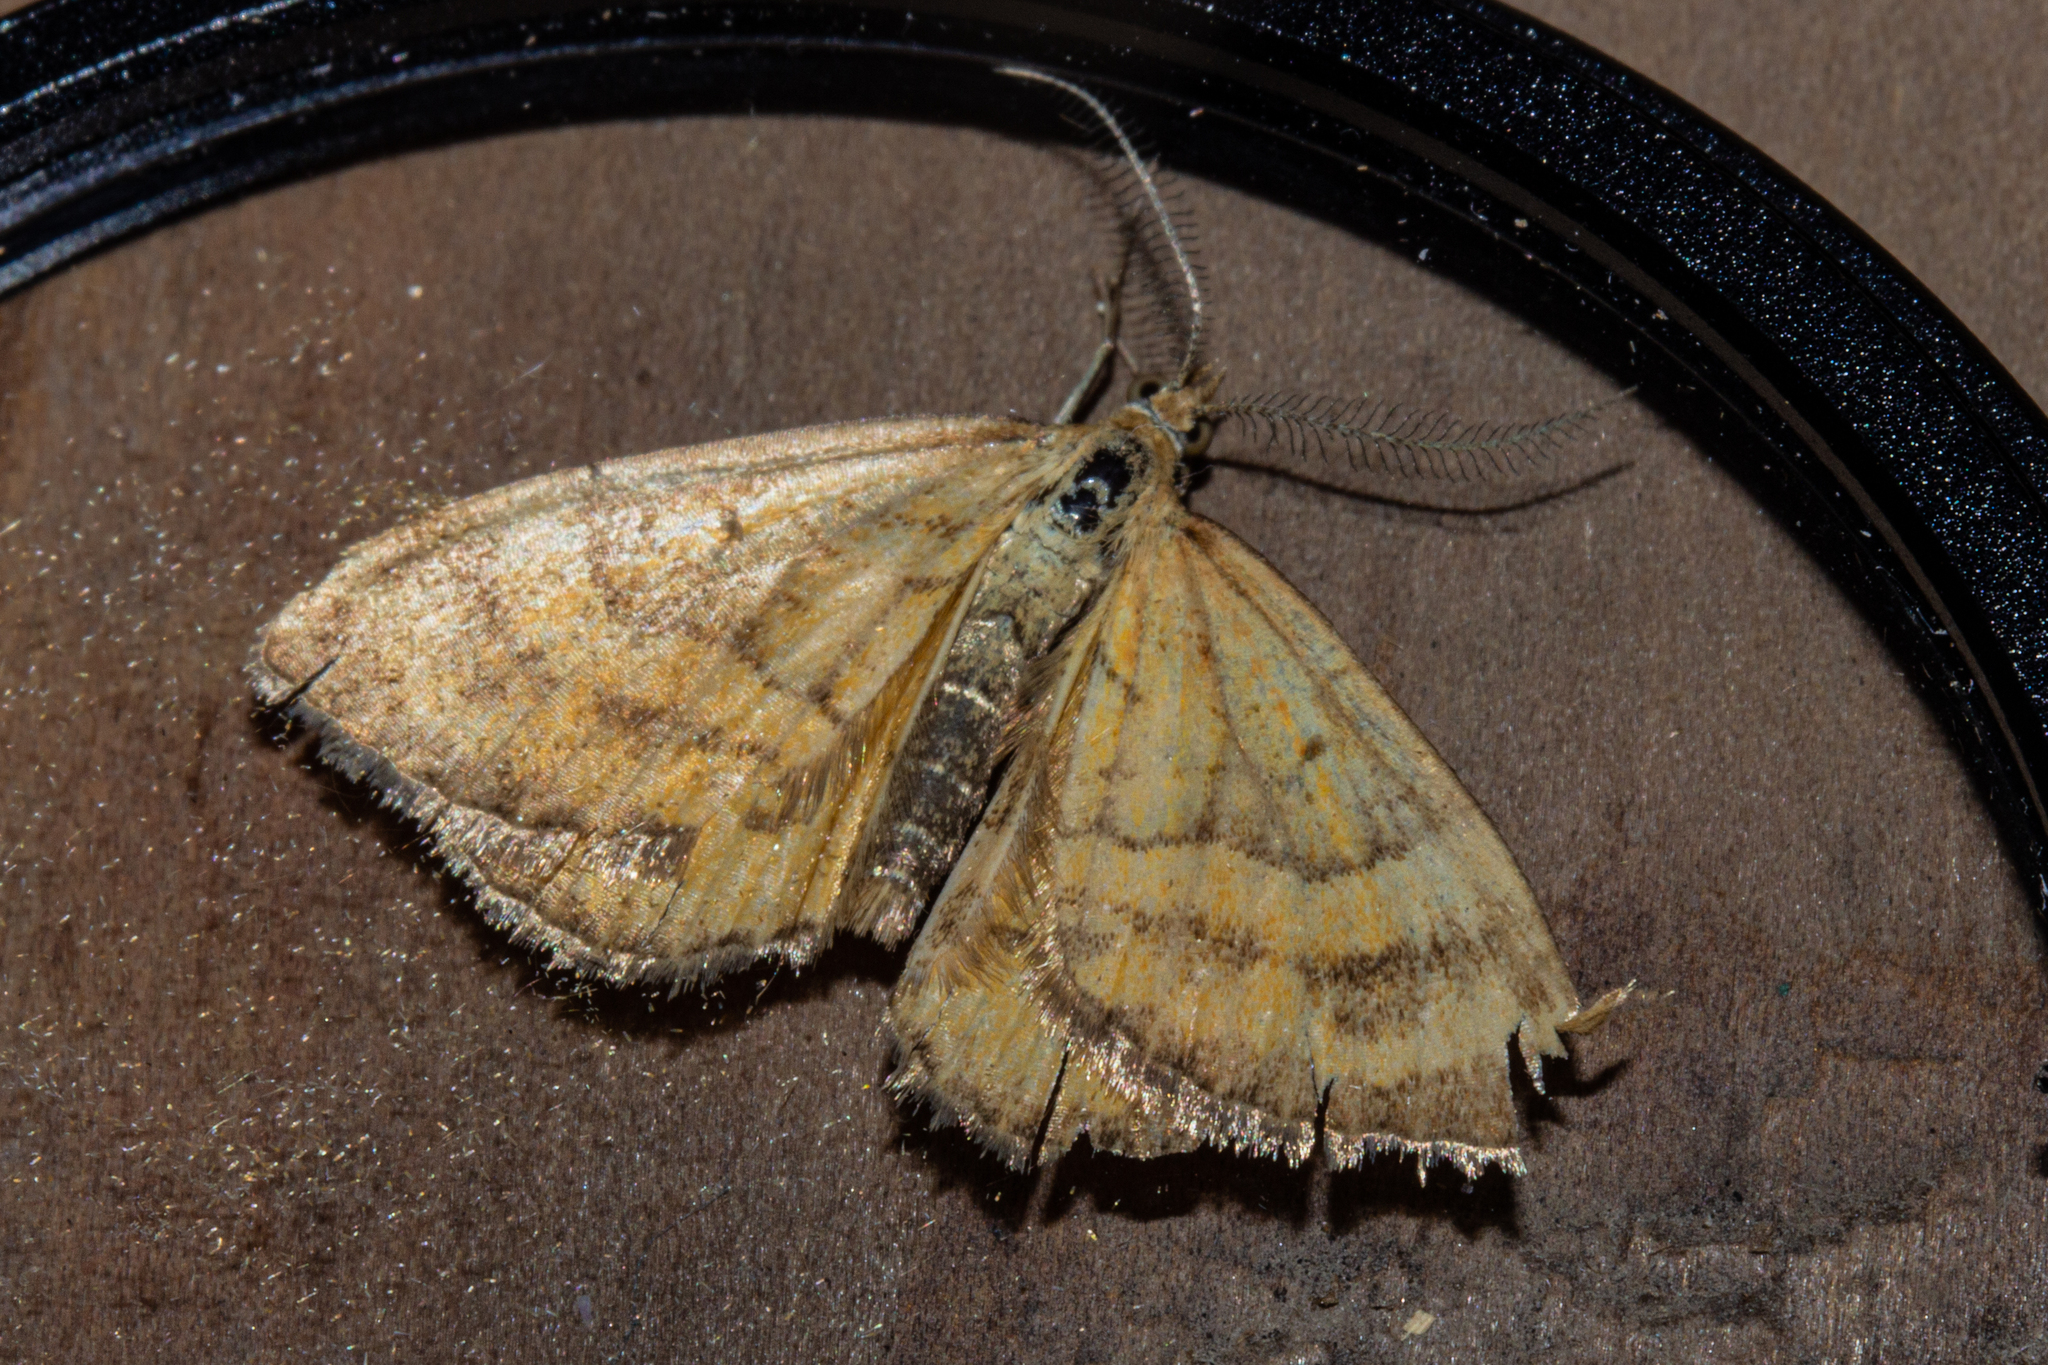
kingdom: Animalia
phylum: Arthropoda
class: Insecta
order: Lepidoptera
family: Geometridae
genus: Asaphodes
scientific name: Asaphodes abrogata
